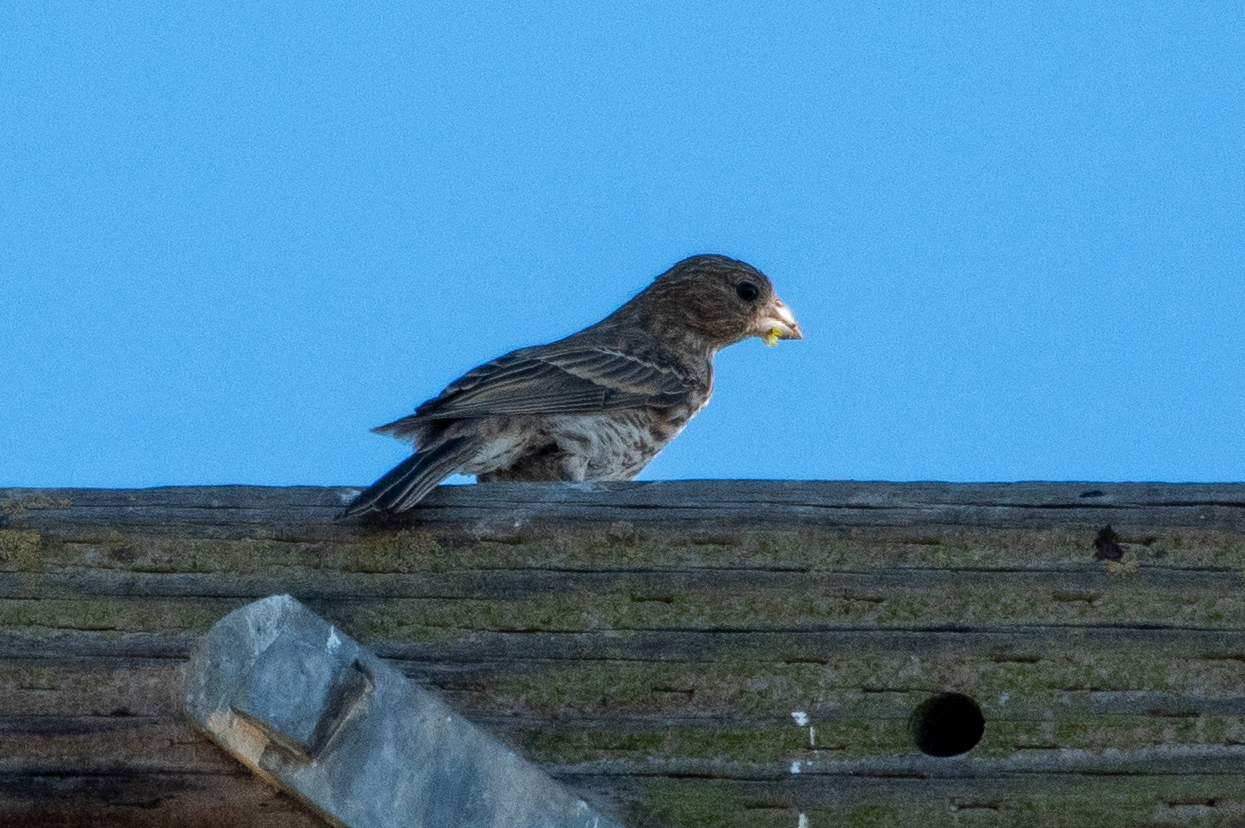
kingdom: Animalia
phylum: Chordata
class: Aves
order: Passeriformes
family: Fringillidae
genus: Haemorhous
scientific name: Haemorhous mexicanus
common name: House finch
